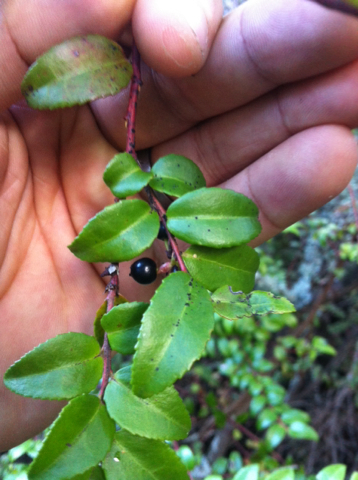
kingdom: Plantae
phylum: Tracheophyta
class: Magnoliopsida
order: Ericales
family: Ericaceae
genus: Vaccinium
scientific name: Vaccinium ovatum
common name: California-huckleberry
